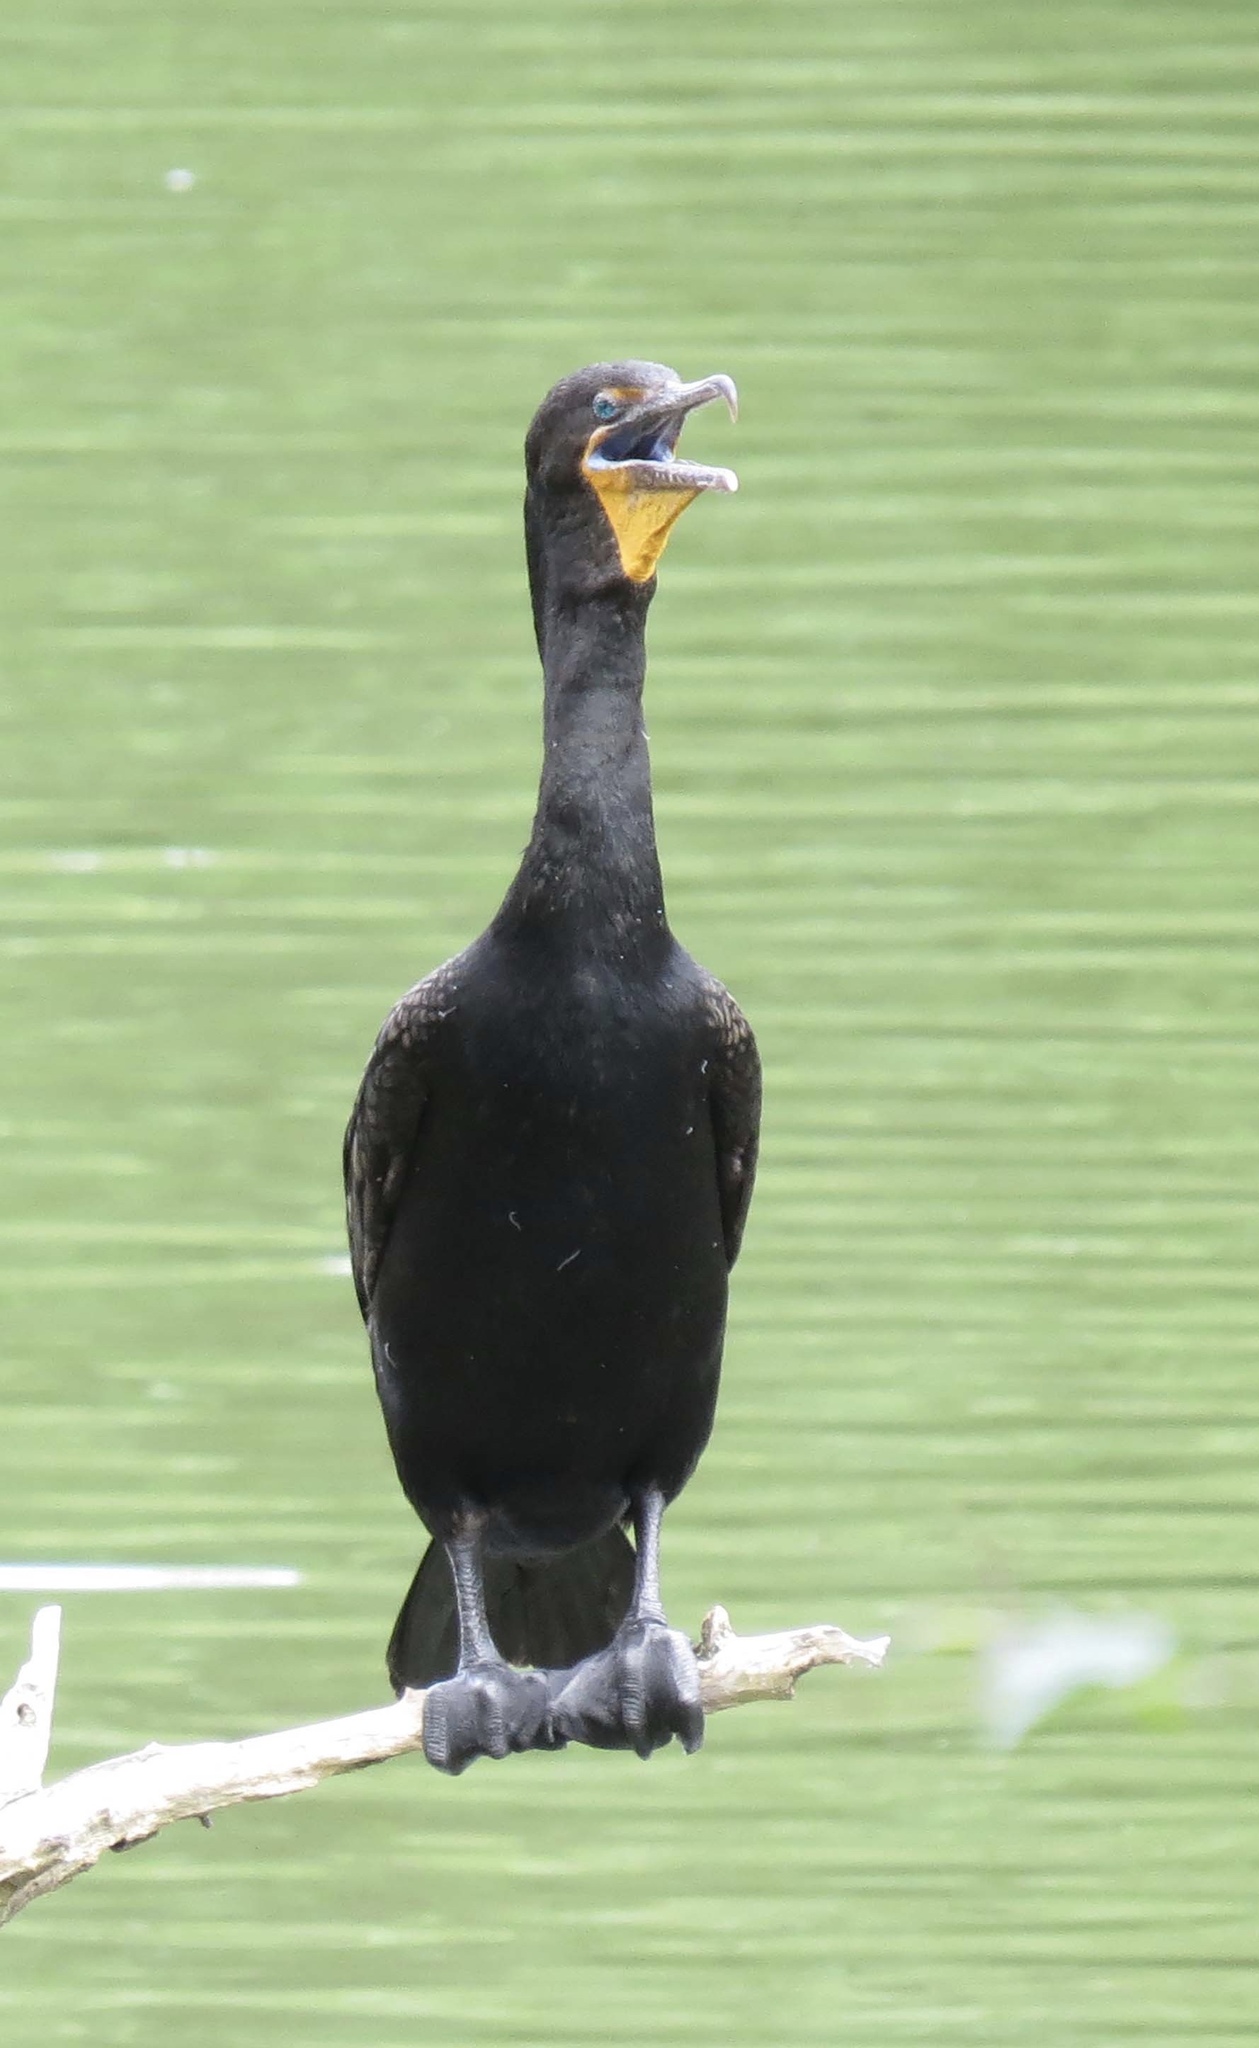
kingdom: Animalia
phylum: Chordata
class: Aves
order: Suliformes
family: Phalacrocoracidae
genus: Phalacrocorax
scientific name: Phalacrocorax auritus
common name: Double-crested cormorant
